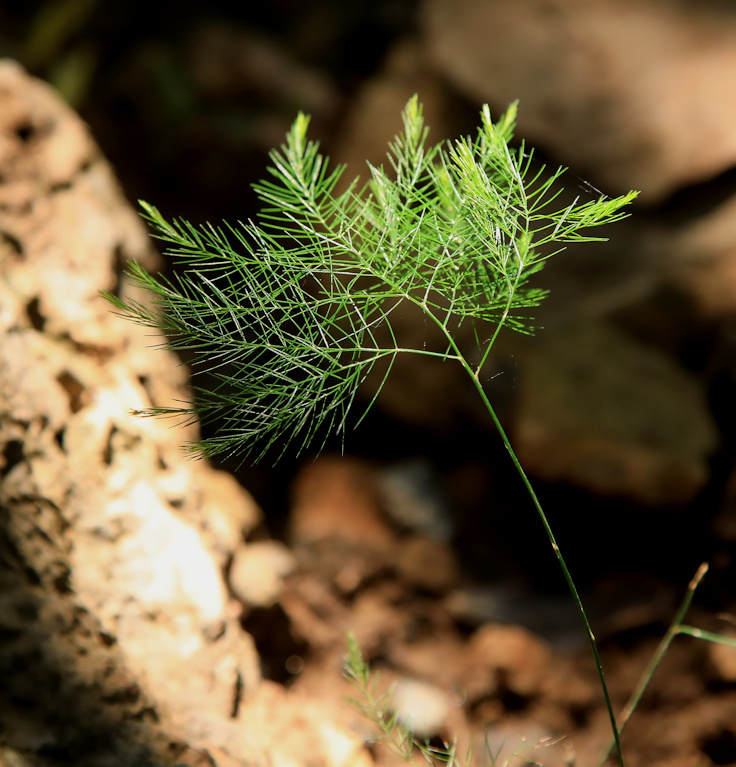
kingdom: Plantae
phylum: Tracheophyta
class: Liliopsida
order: Asparagales
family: Asparagaceae
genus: Asparagus
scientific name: Asparagus virgatus
